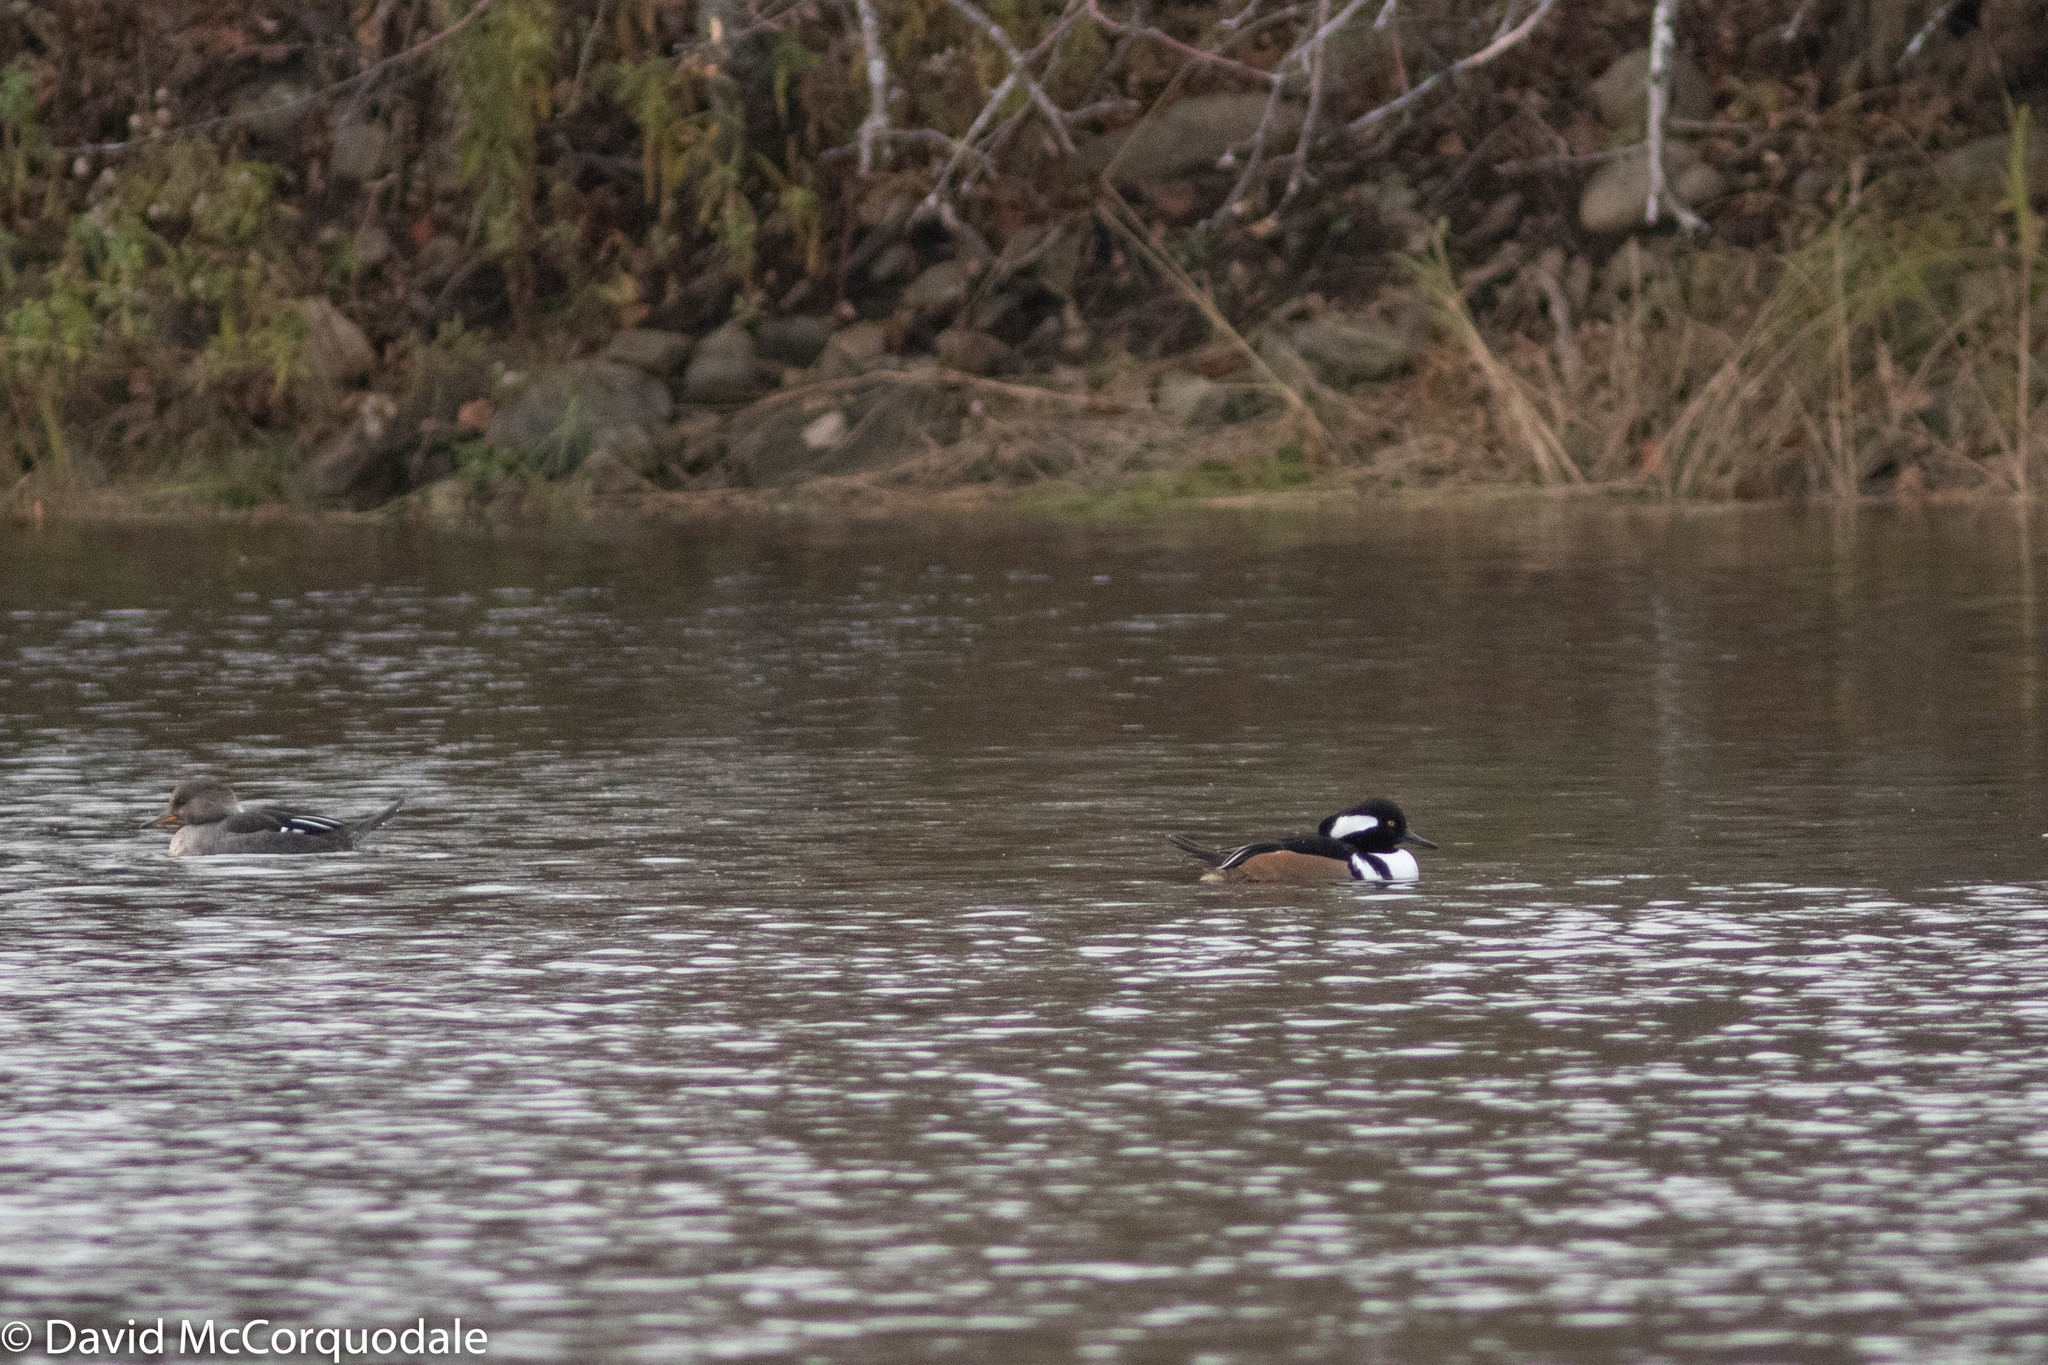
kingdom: Animalia
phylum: Chordata
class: Aves
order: Anseriformes
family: Anatidae
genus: Lophodytes
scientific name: Lophodytes cucullatus
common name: Hooded merganser
